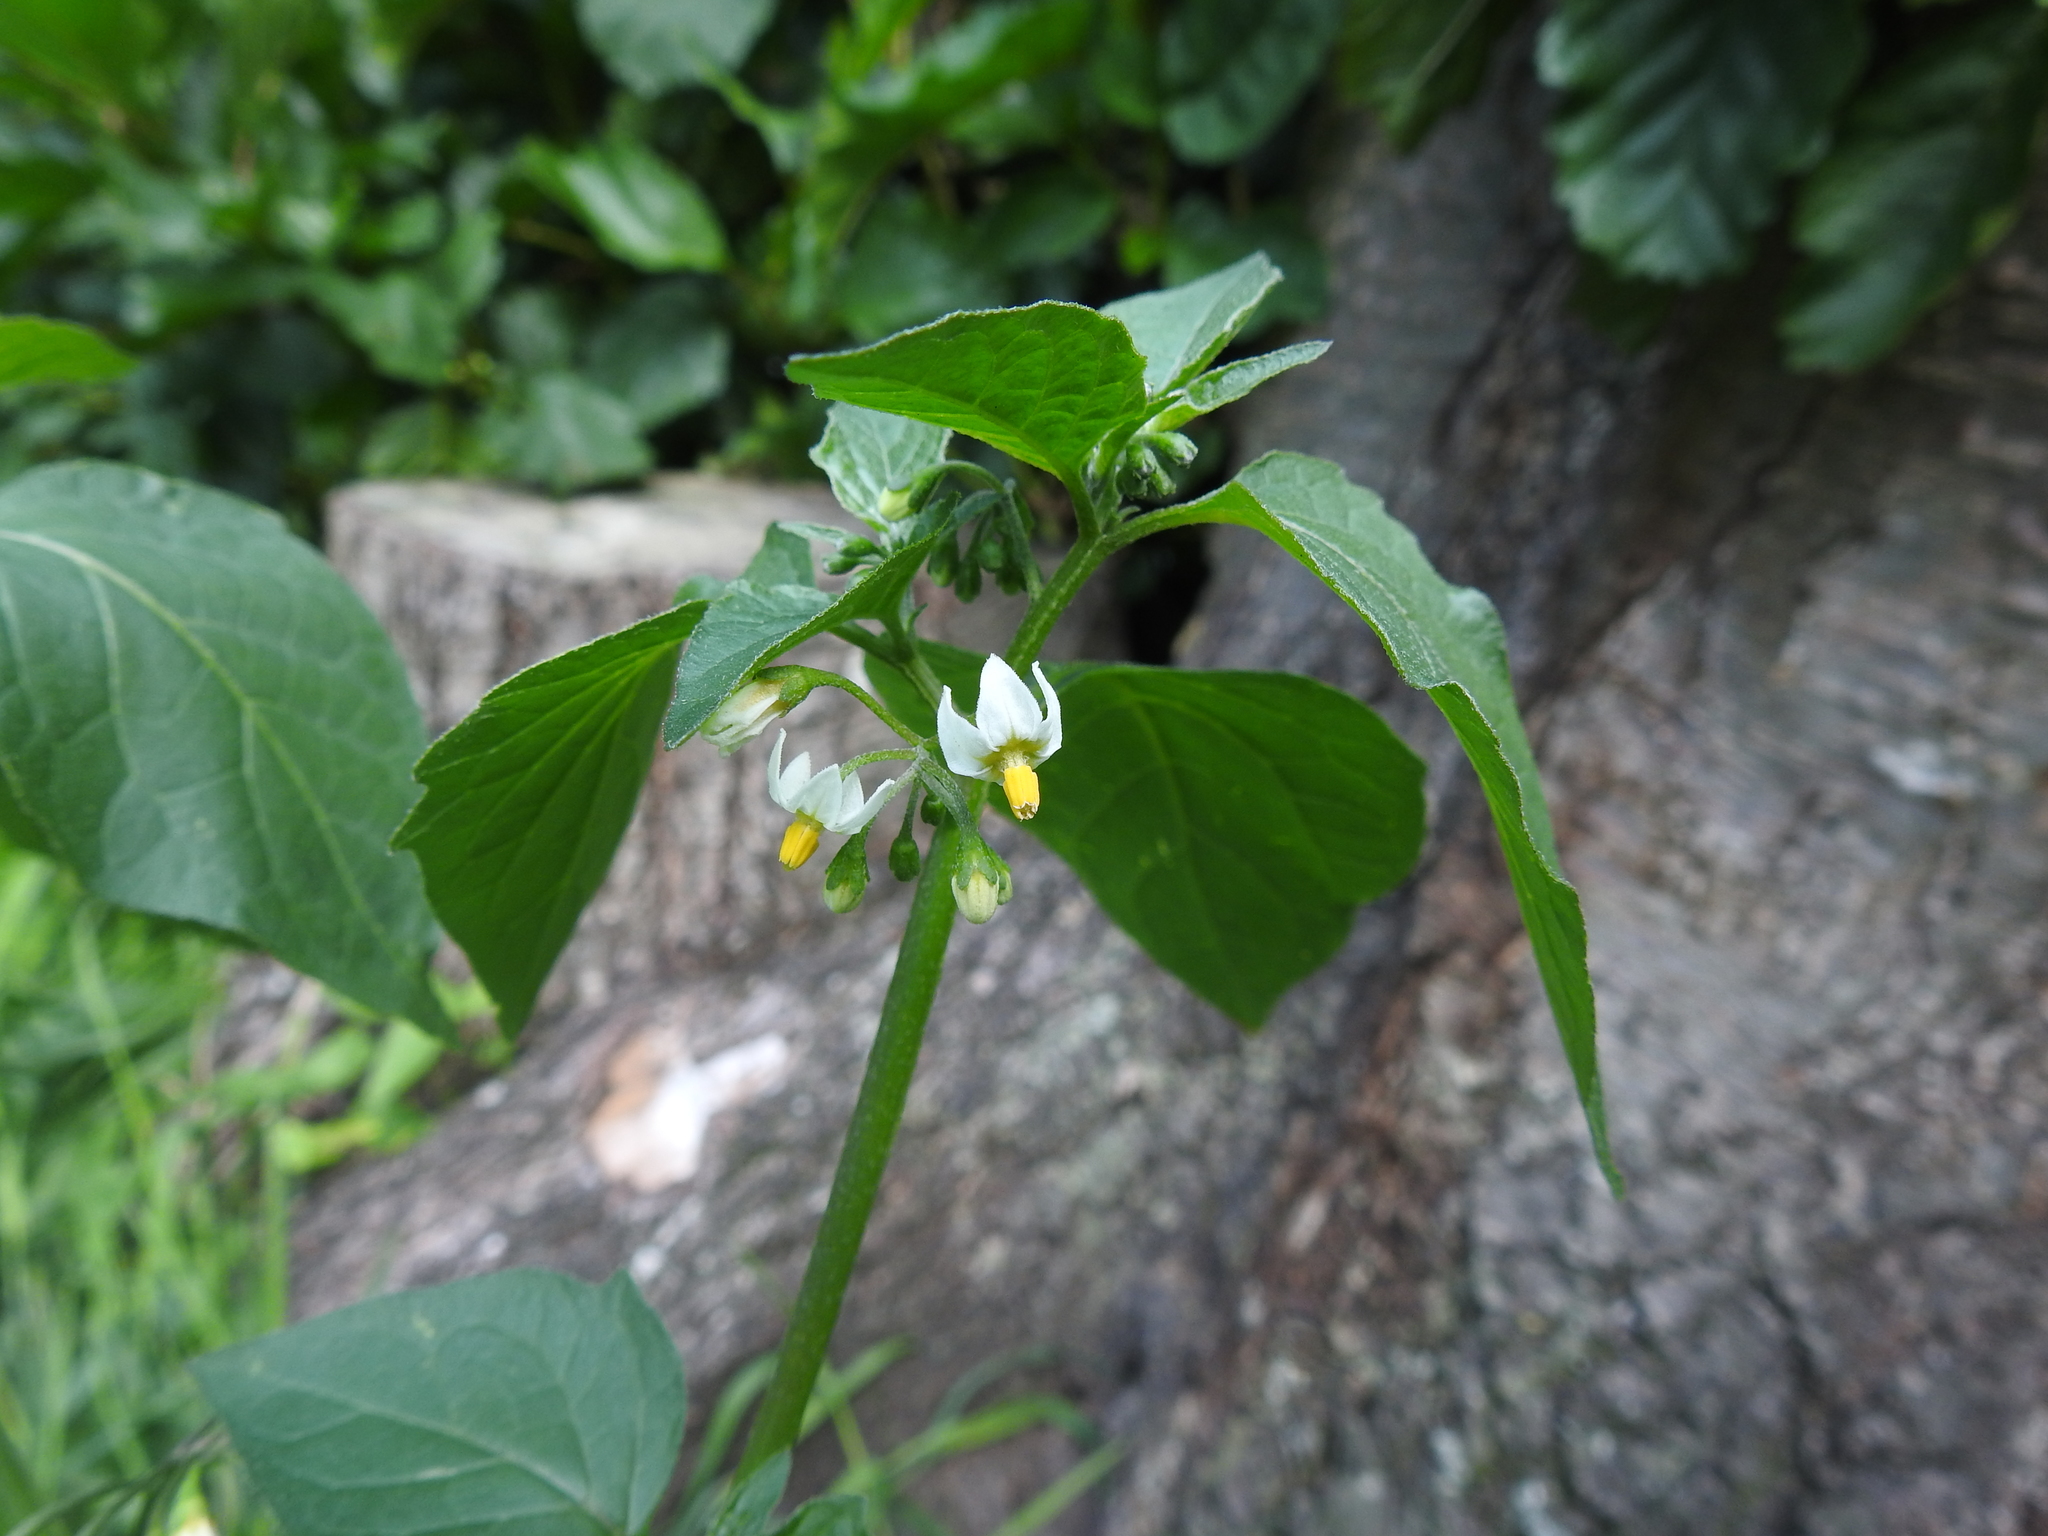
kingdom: Plantae
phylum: Tracheophyta
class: Magnoliopsida
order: Solanales
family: Solanaceae
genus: Solanum
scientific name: Solanum nigrum
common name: Black nightshade
